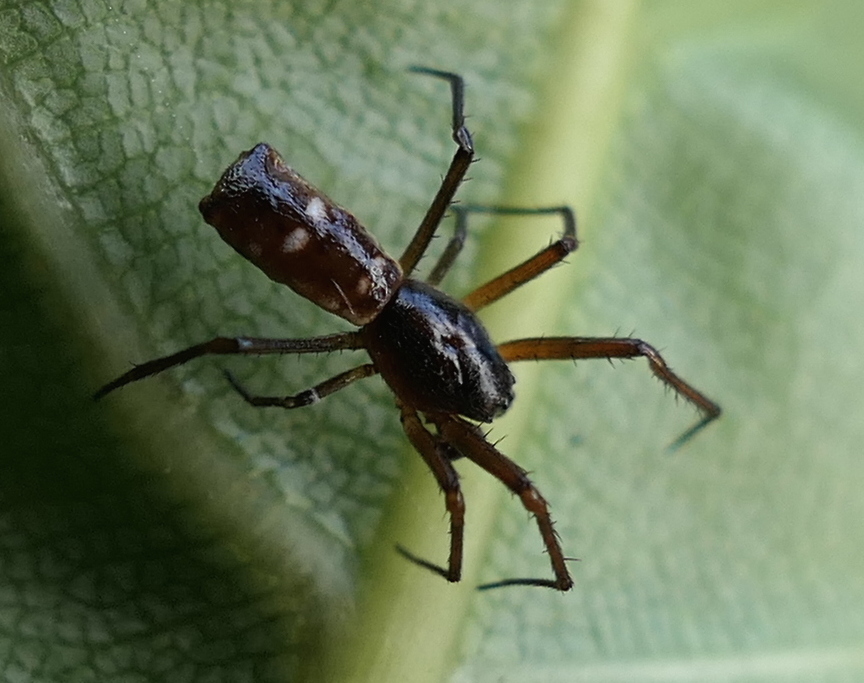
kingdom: Animalia
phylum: Arthropoda
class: Arachnida
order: Araneae
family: Araneidae
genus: Micrathena
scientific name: Micrathena fissispina
